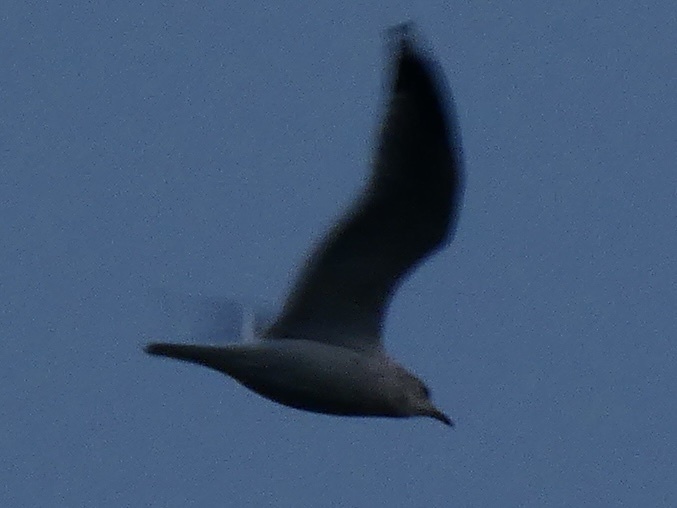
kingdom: Animalia
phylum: Chordata
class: Aves
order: Charadriiformes
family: Laridae
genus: Larus
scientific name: Larus canus
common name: Mew gull
